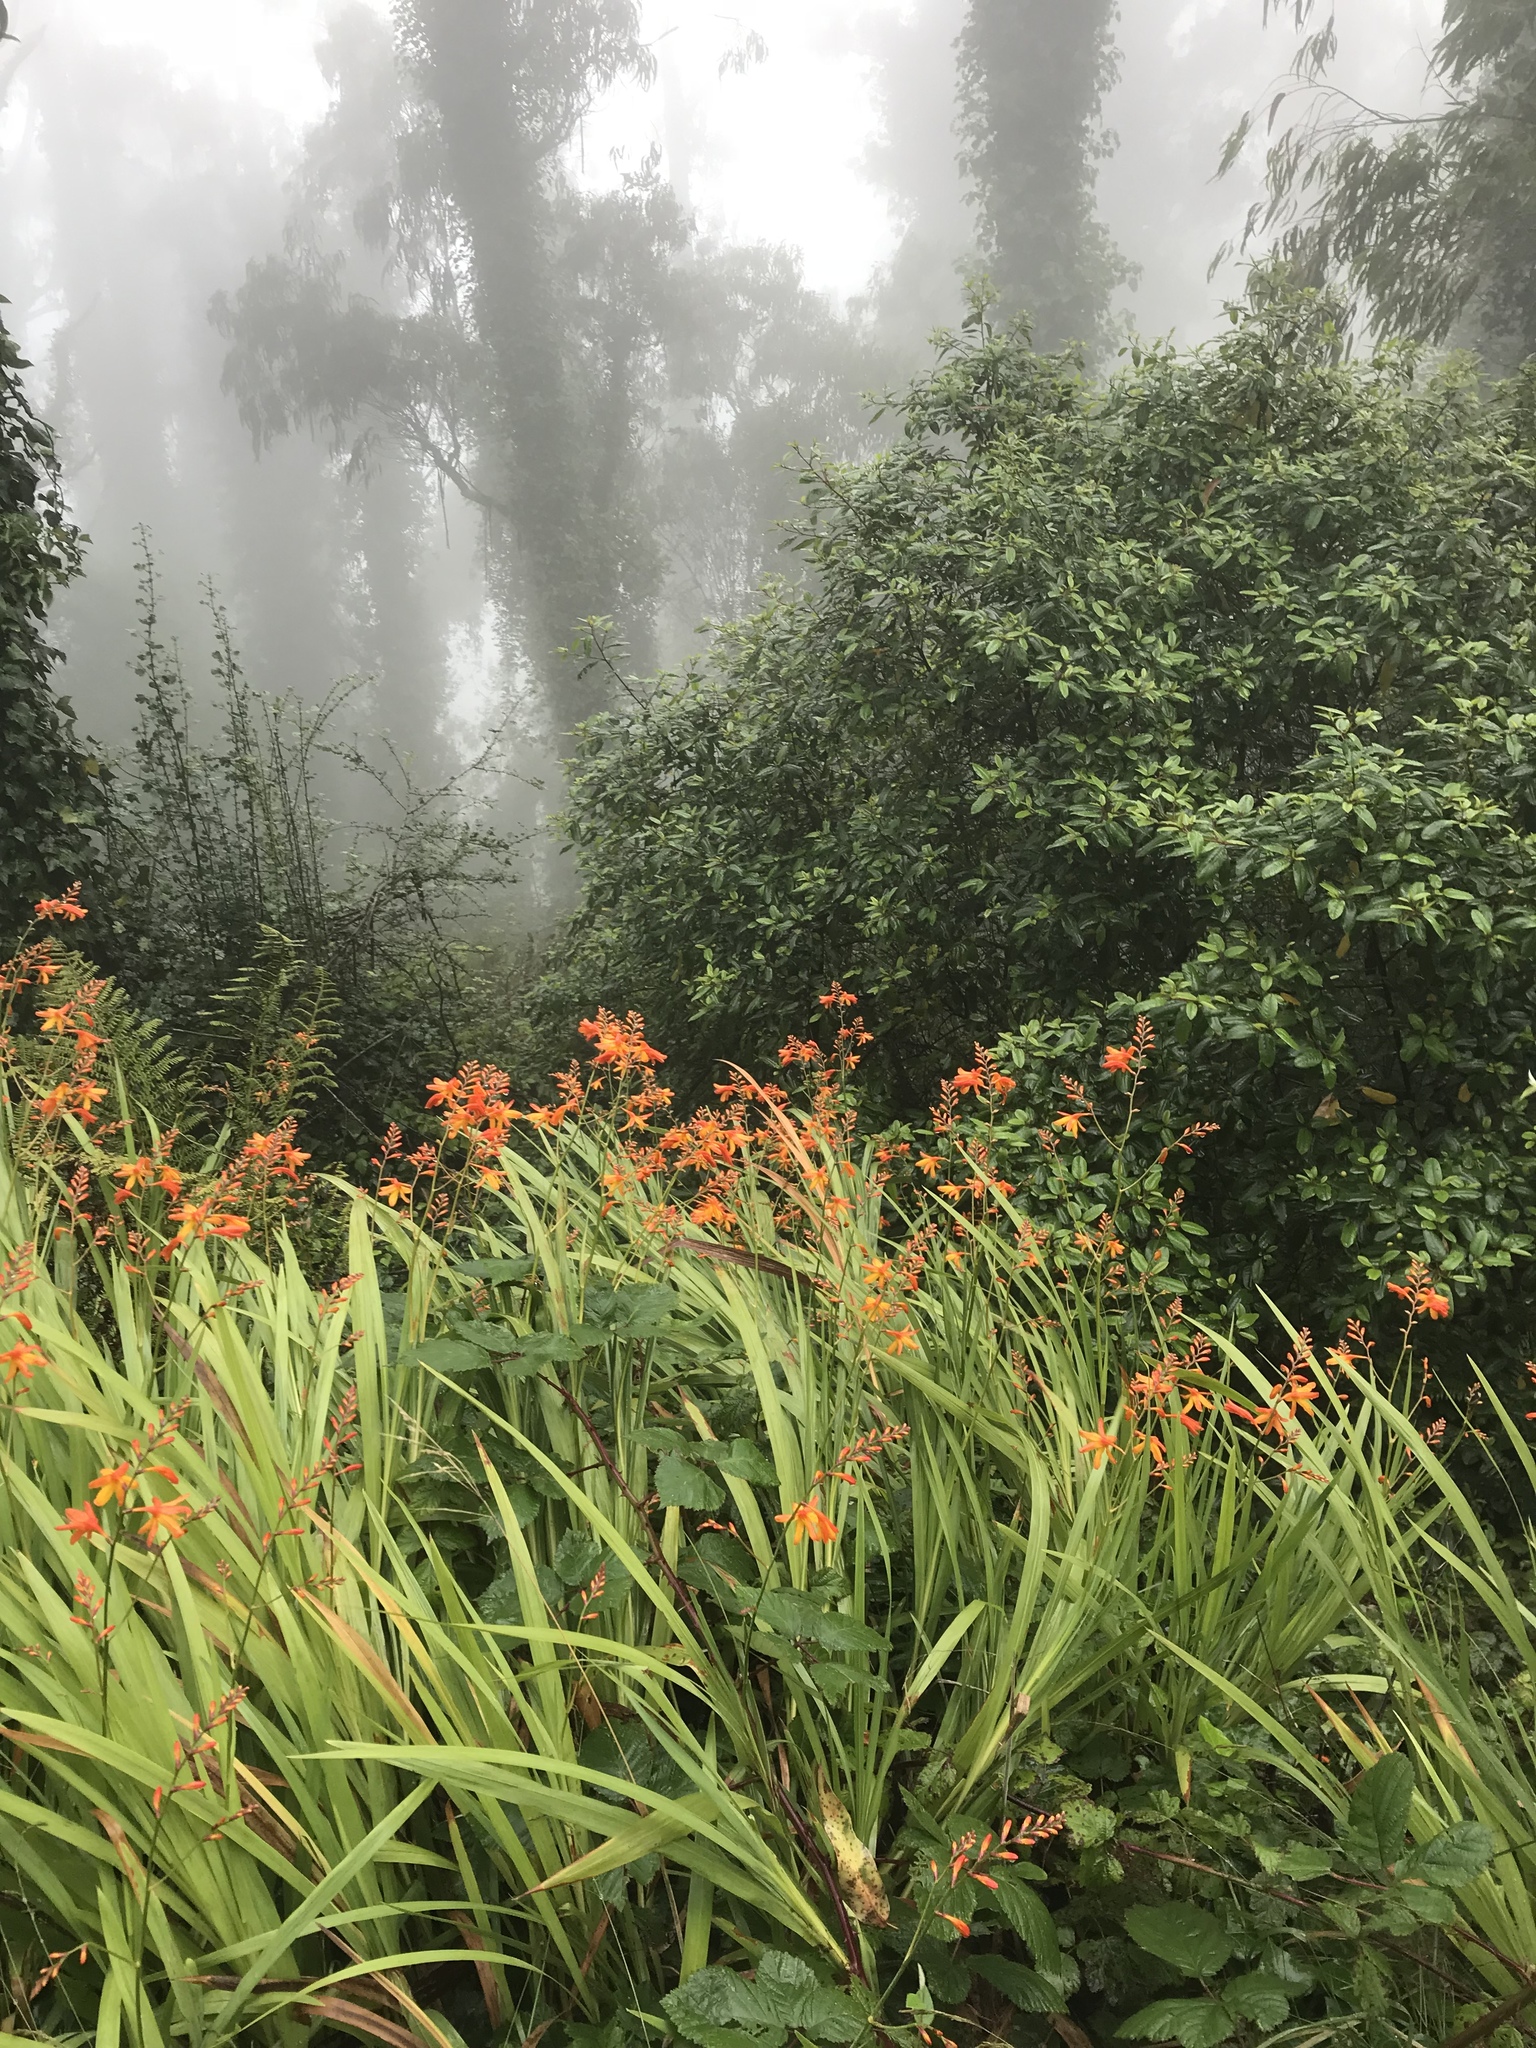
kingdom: Plantae
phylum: Tracheophyta
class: Liliopsida
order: Asparagales
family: Iridaceae
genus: Crocosmia
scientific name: Crocosmia crocosmiiflora
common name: Montbretia
